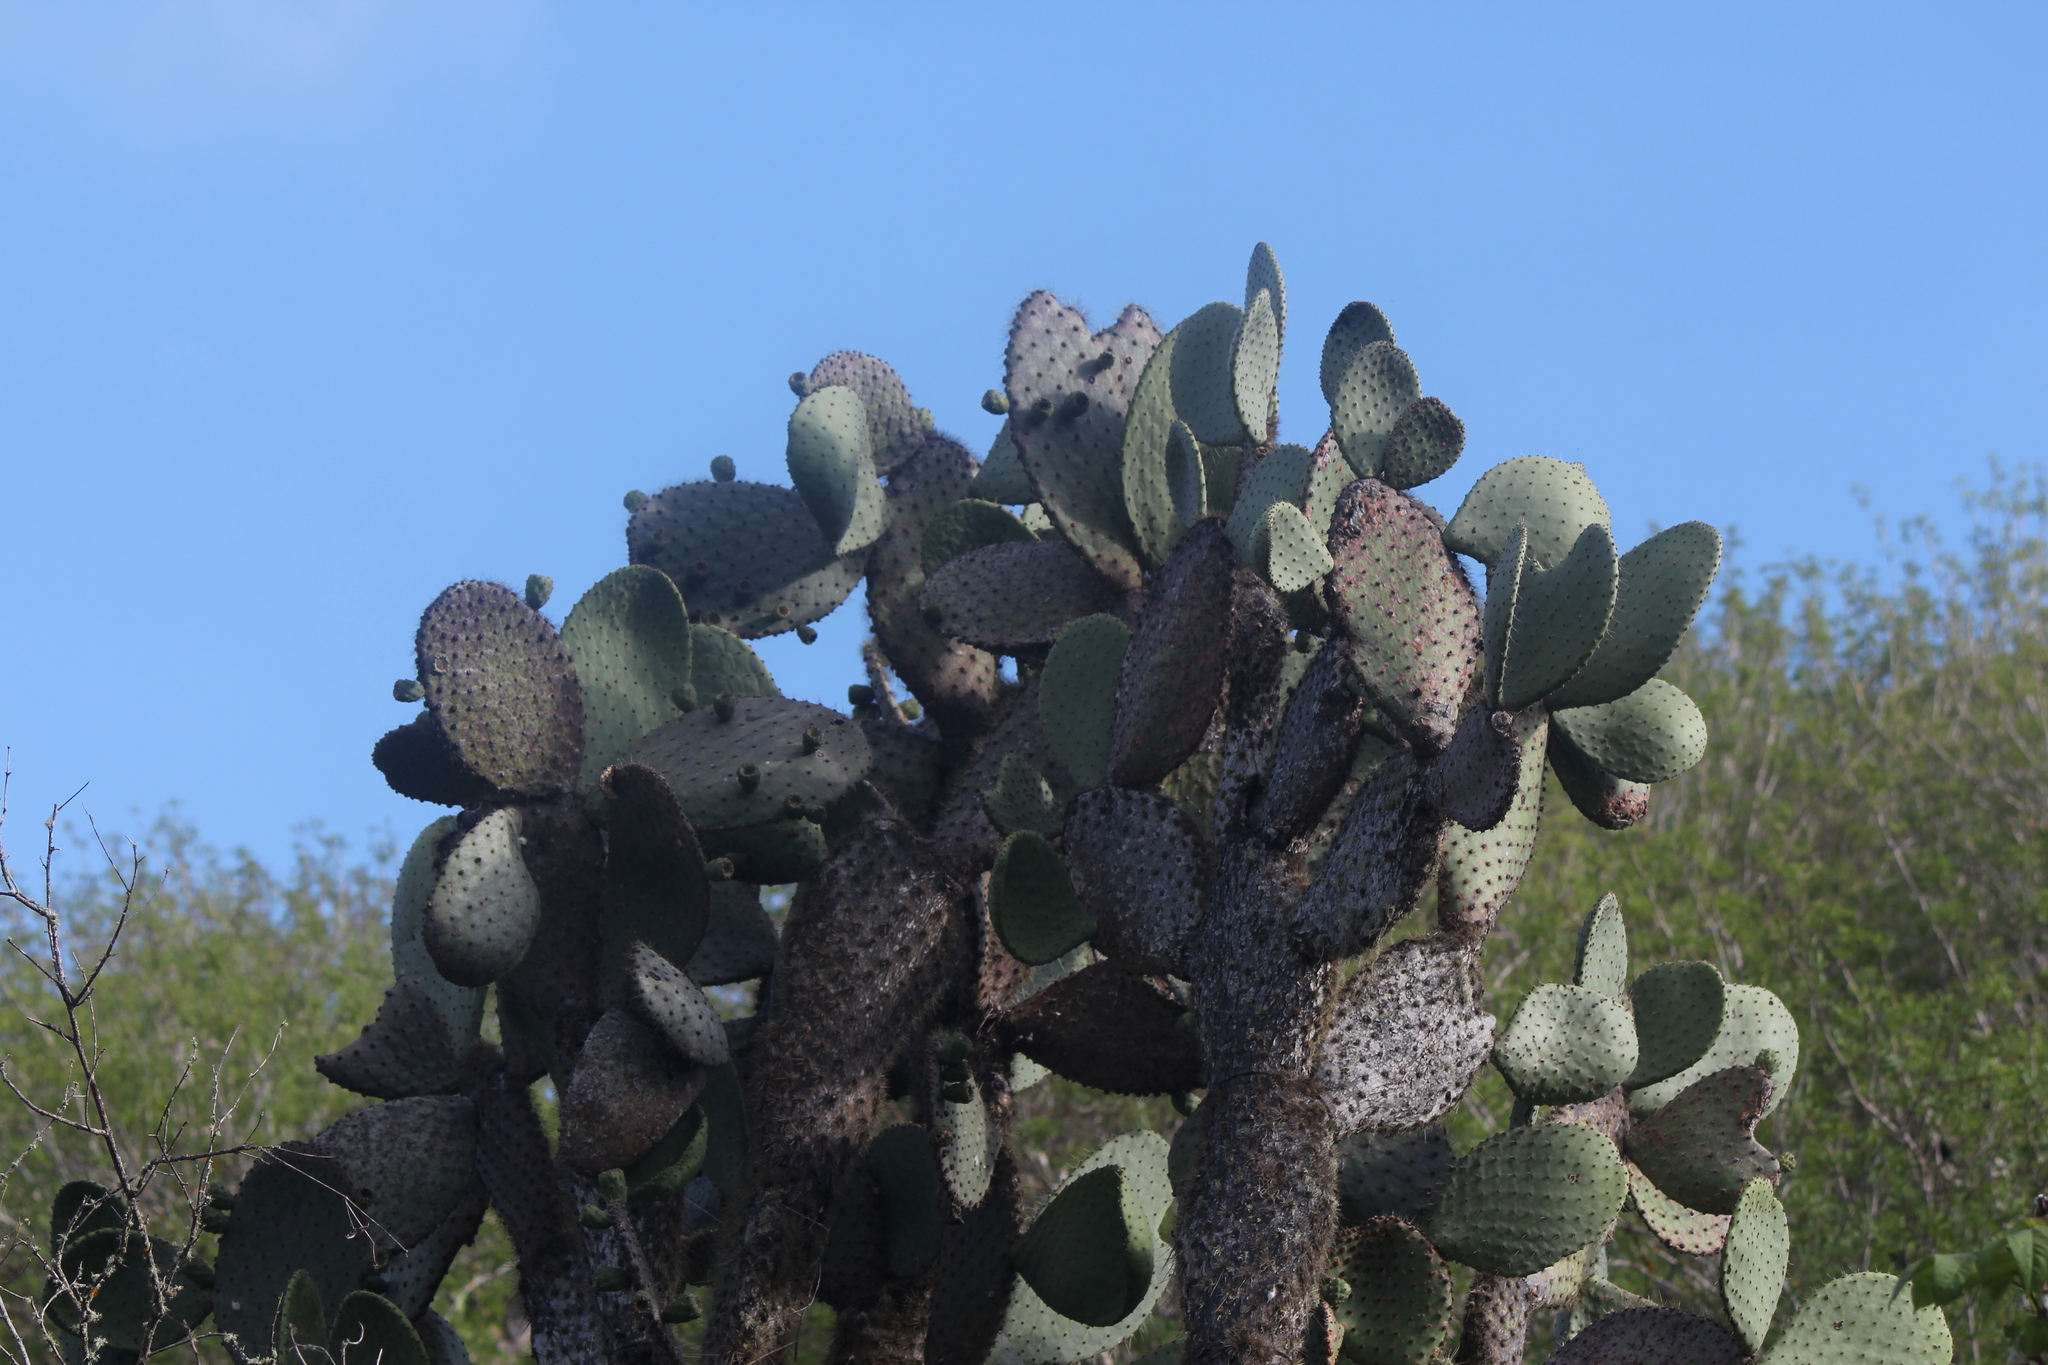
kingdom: Plantae
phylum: Tracheophyta
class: Magnoliopsida
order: Caryophyllales
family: Cactaceae
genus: Opuntia
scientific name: Opuntia galapageia
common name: Galápagos prickly pear
